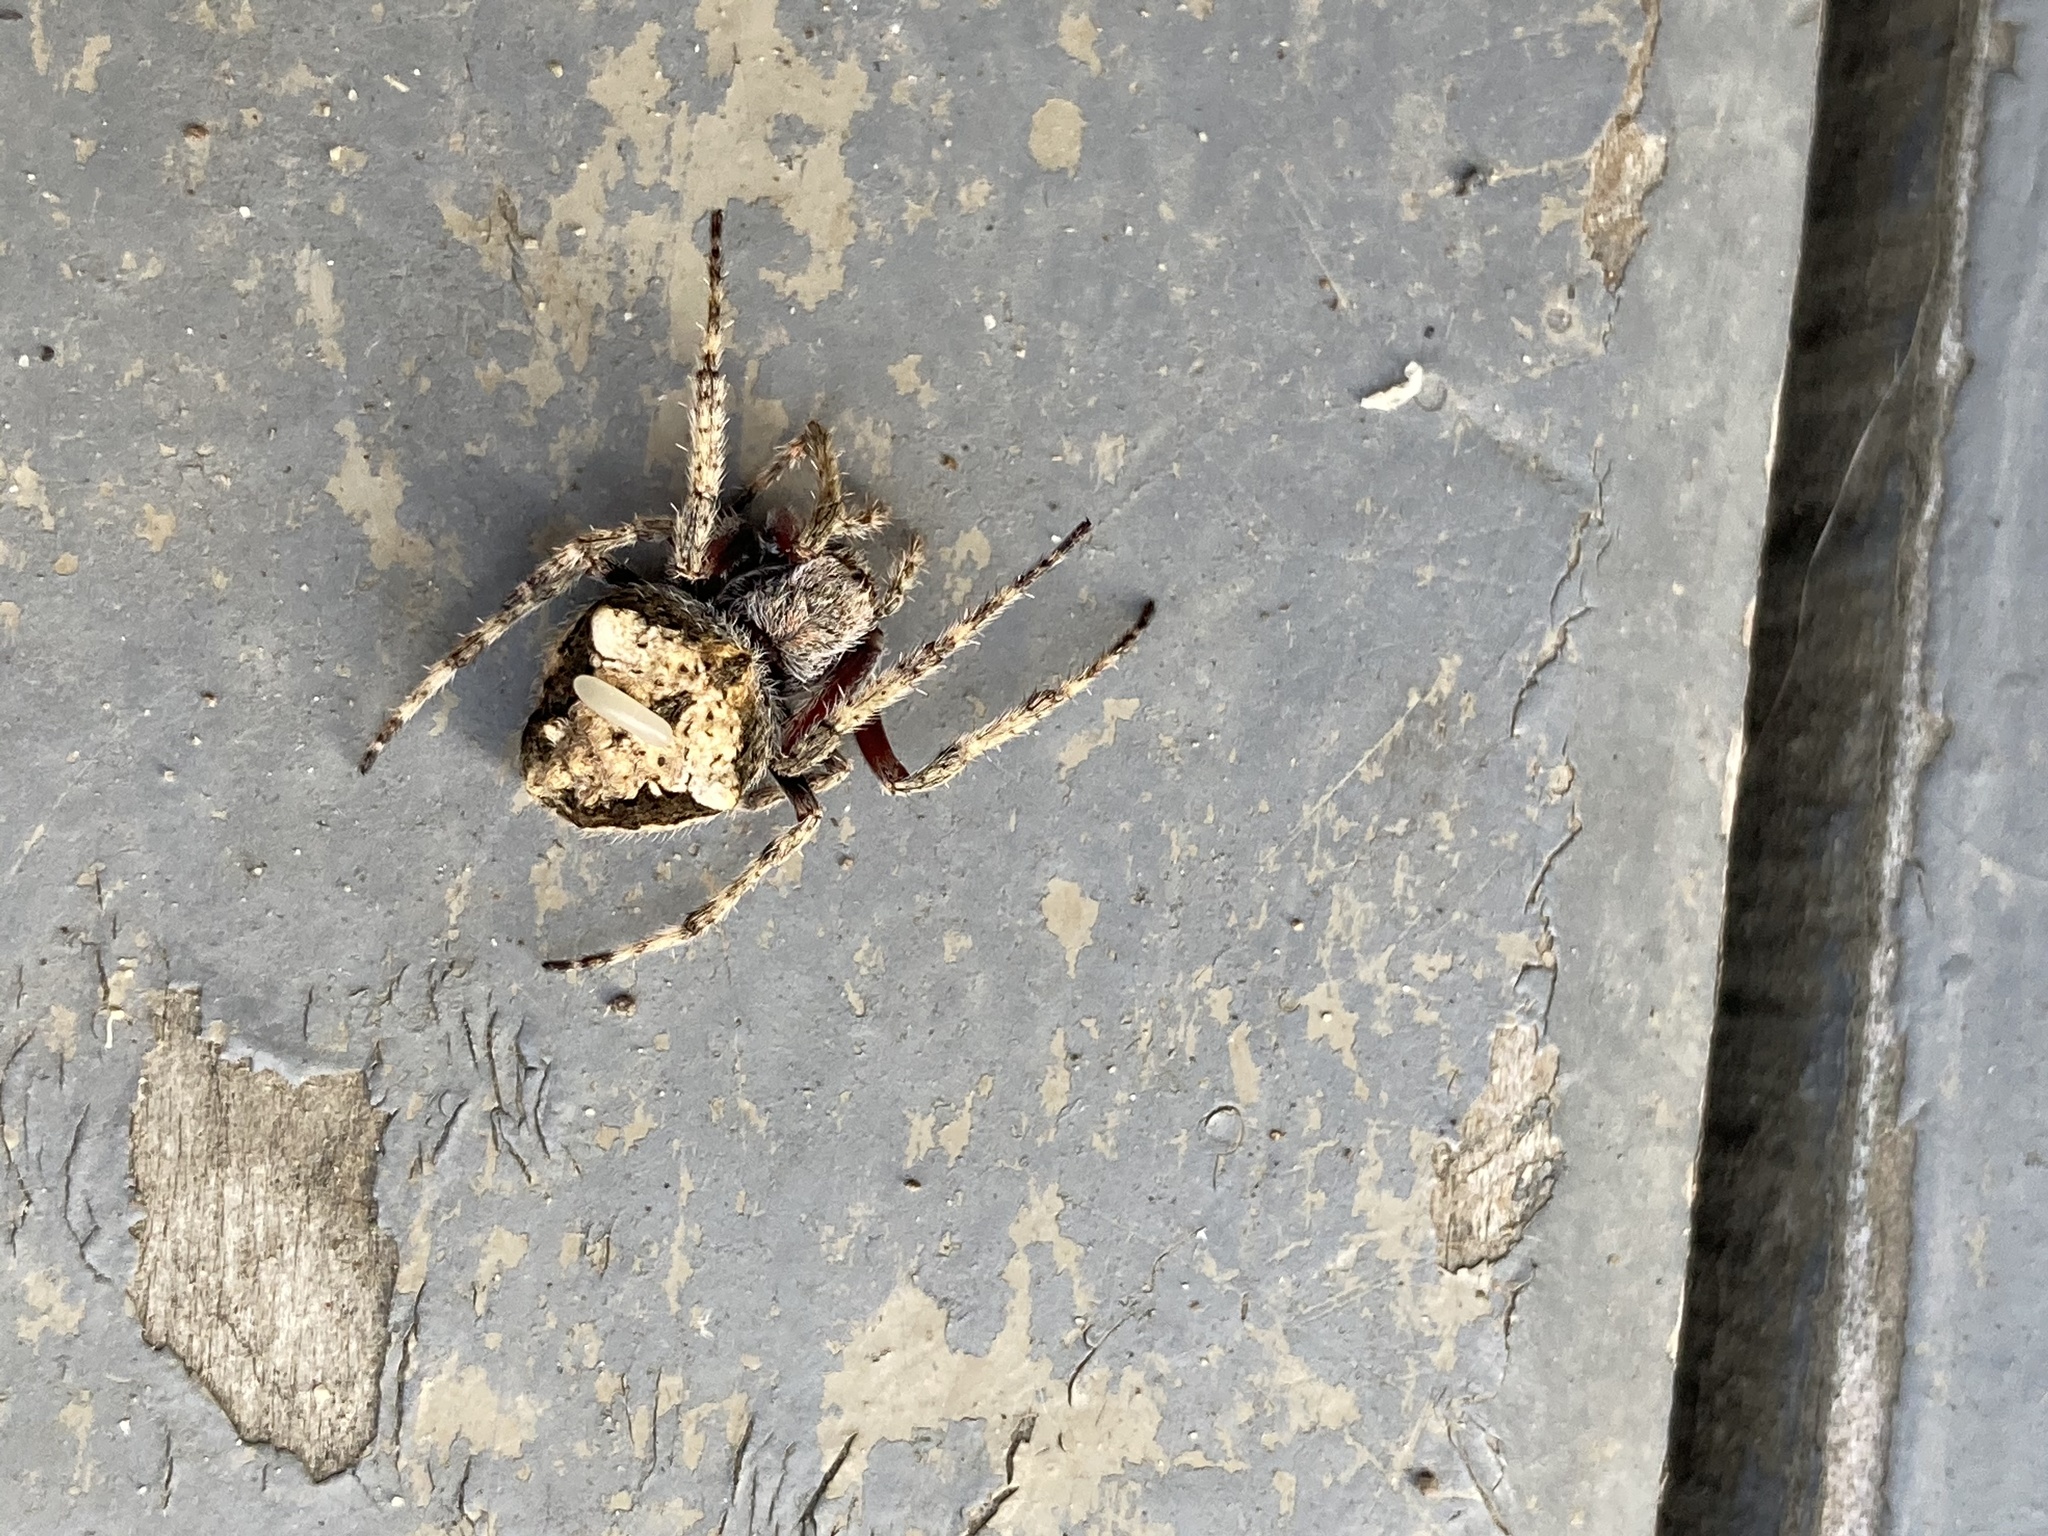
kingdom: Animalia
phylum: Arthropoda
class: Arachnida
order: Araneae
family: Araneidae
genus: Eriophora
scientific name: Eriophora pustulosa
